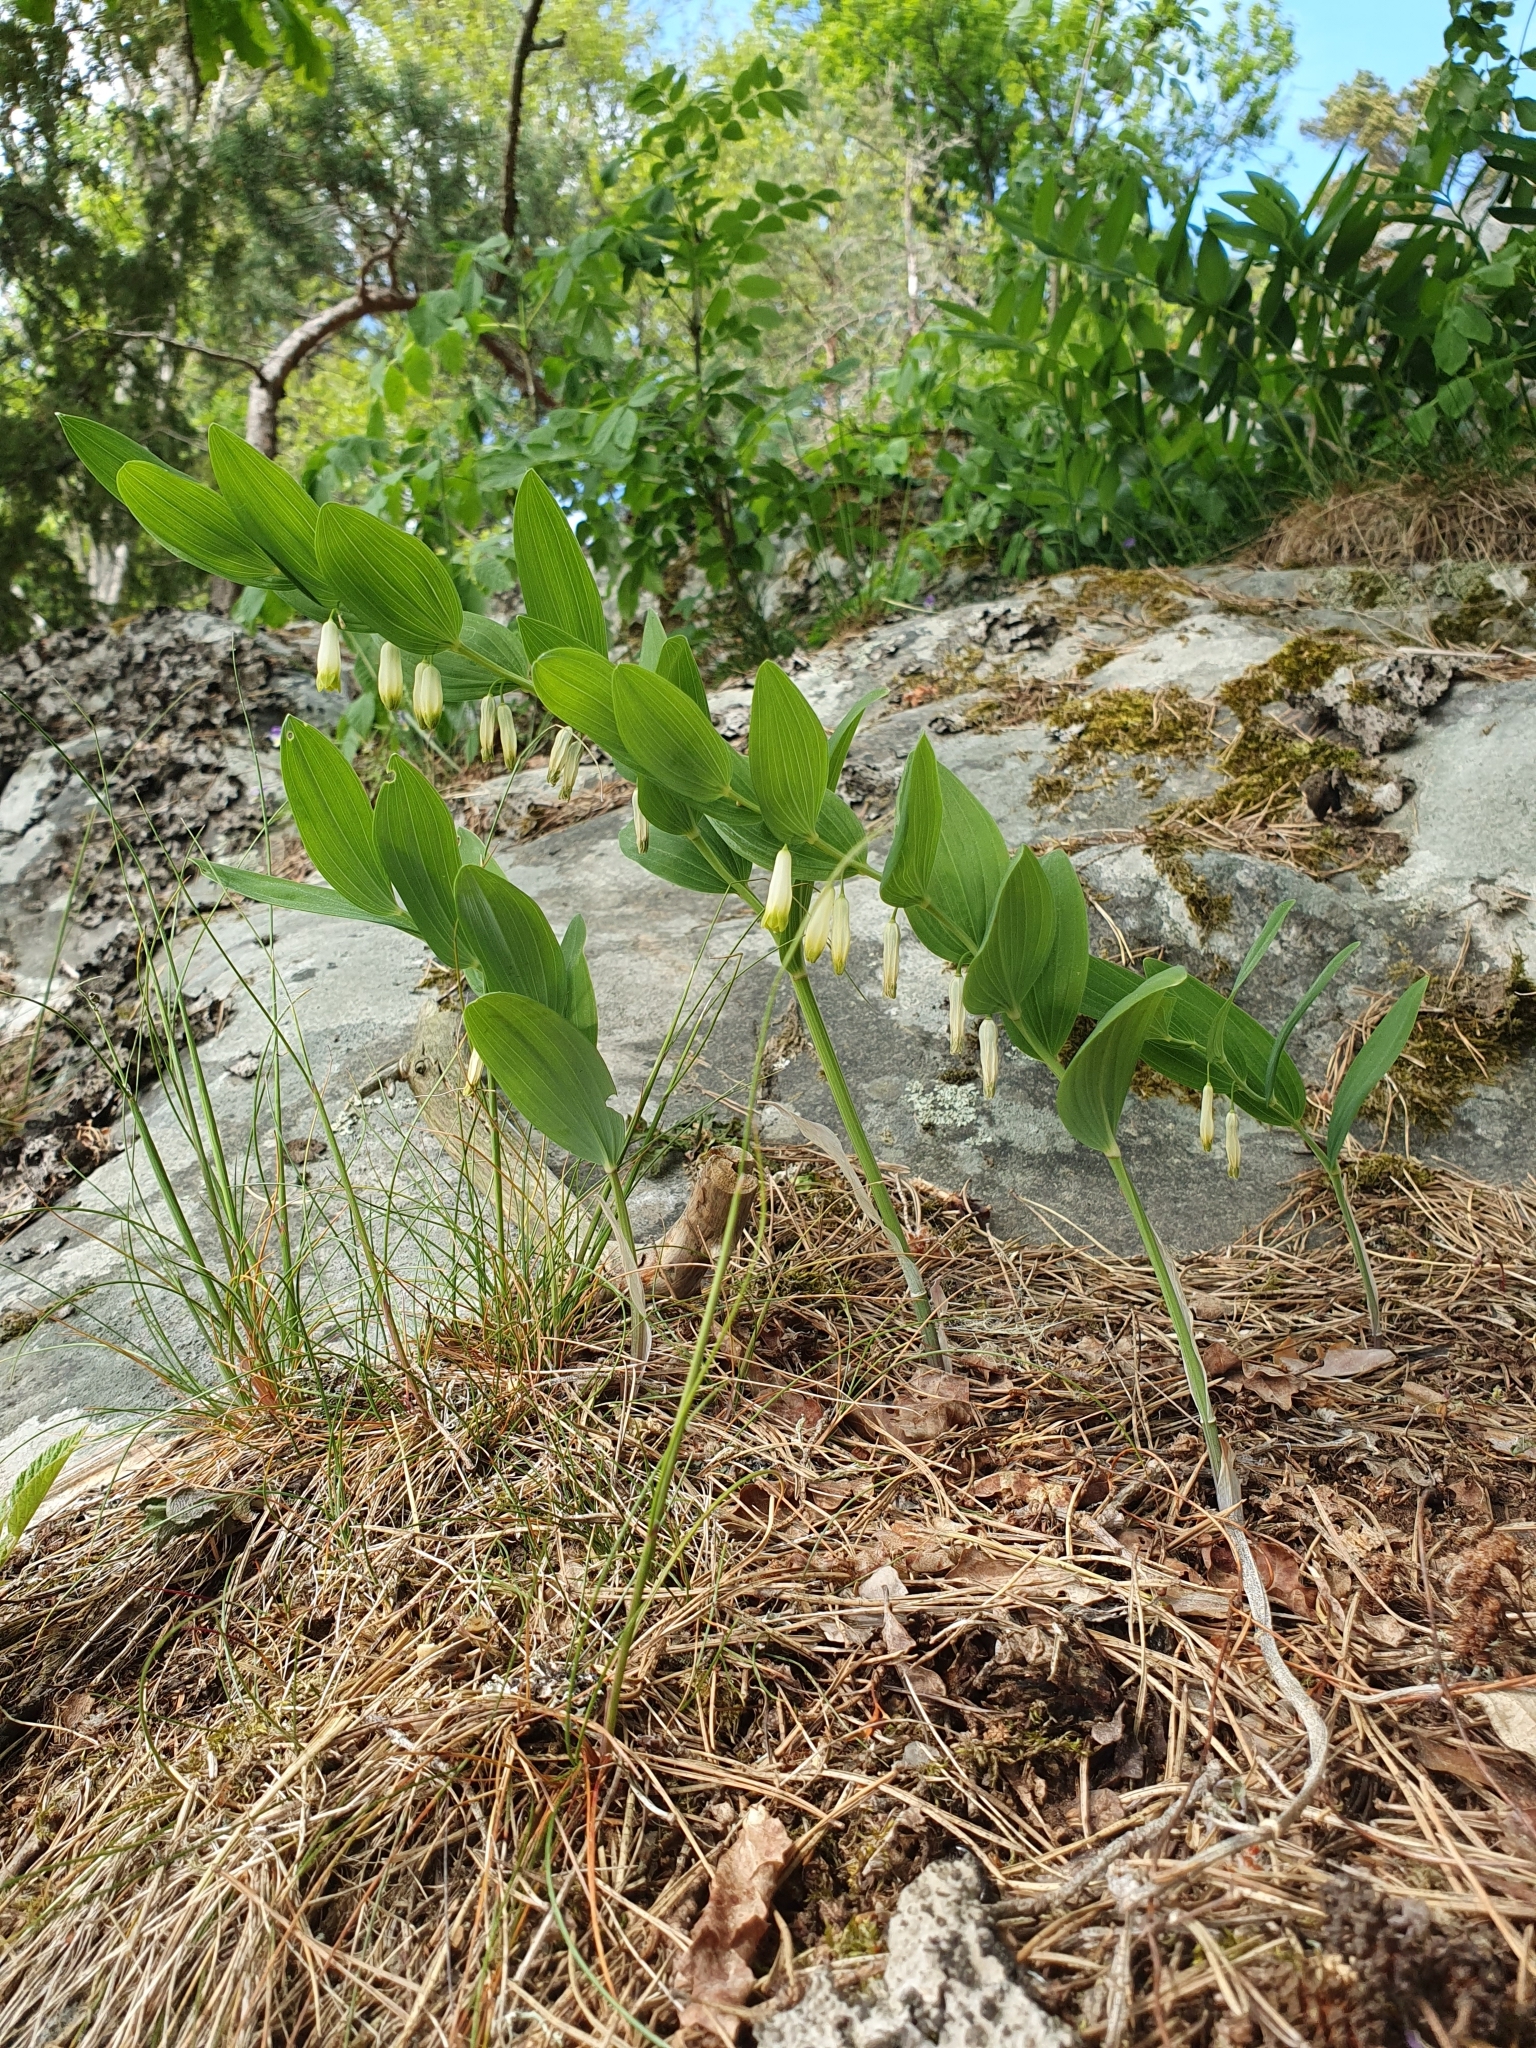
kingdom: Plantae
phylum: Tracheophyta
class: Liliopsida
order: Asparagales
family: Asparagaceae
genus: Polygonatum
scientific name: Polygonatum odoratum
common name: Angular solomon's-seal
